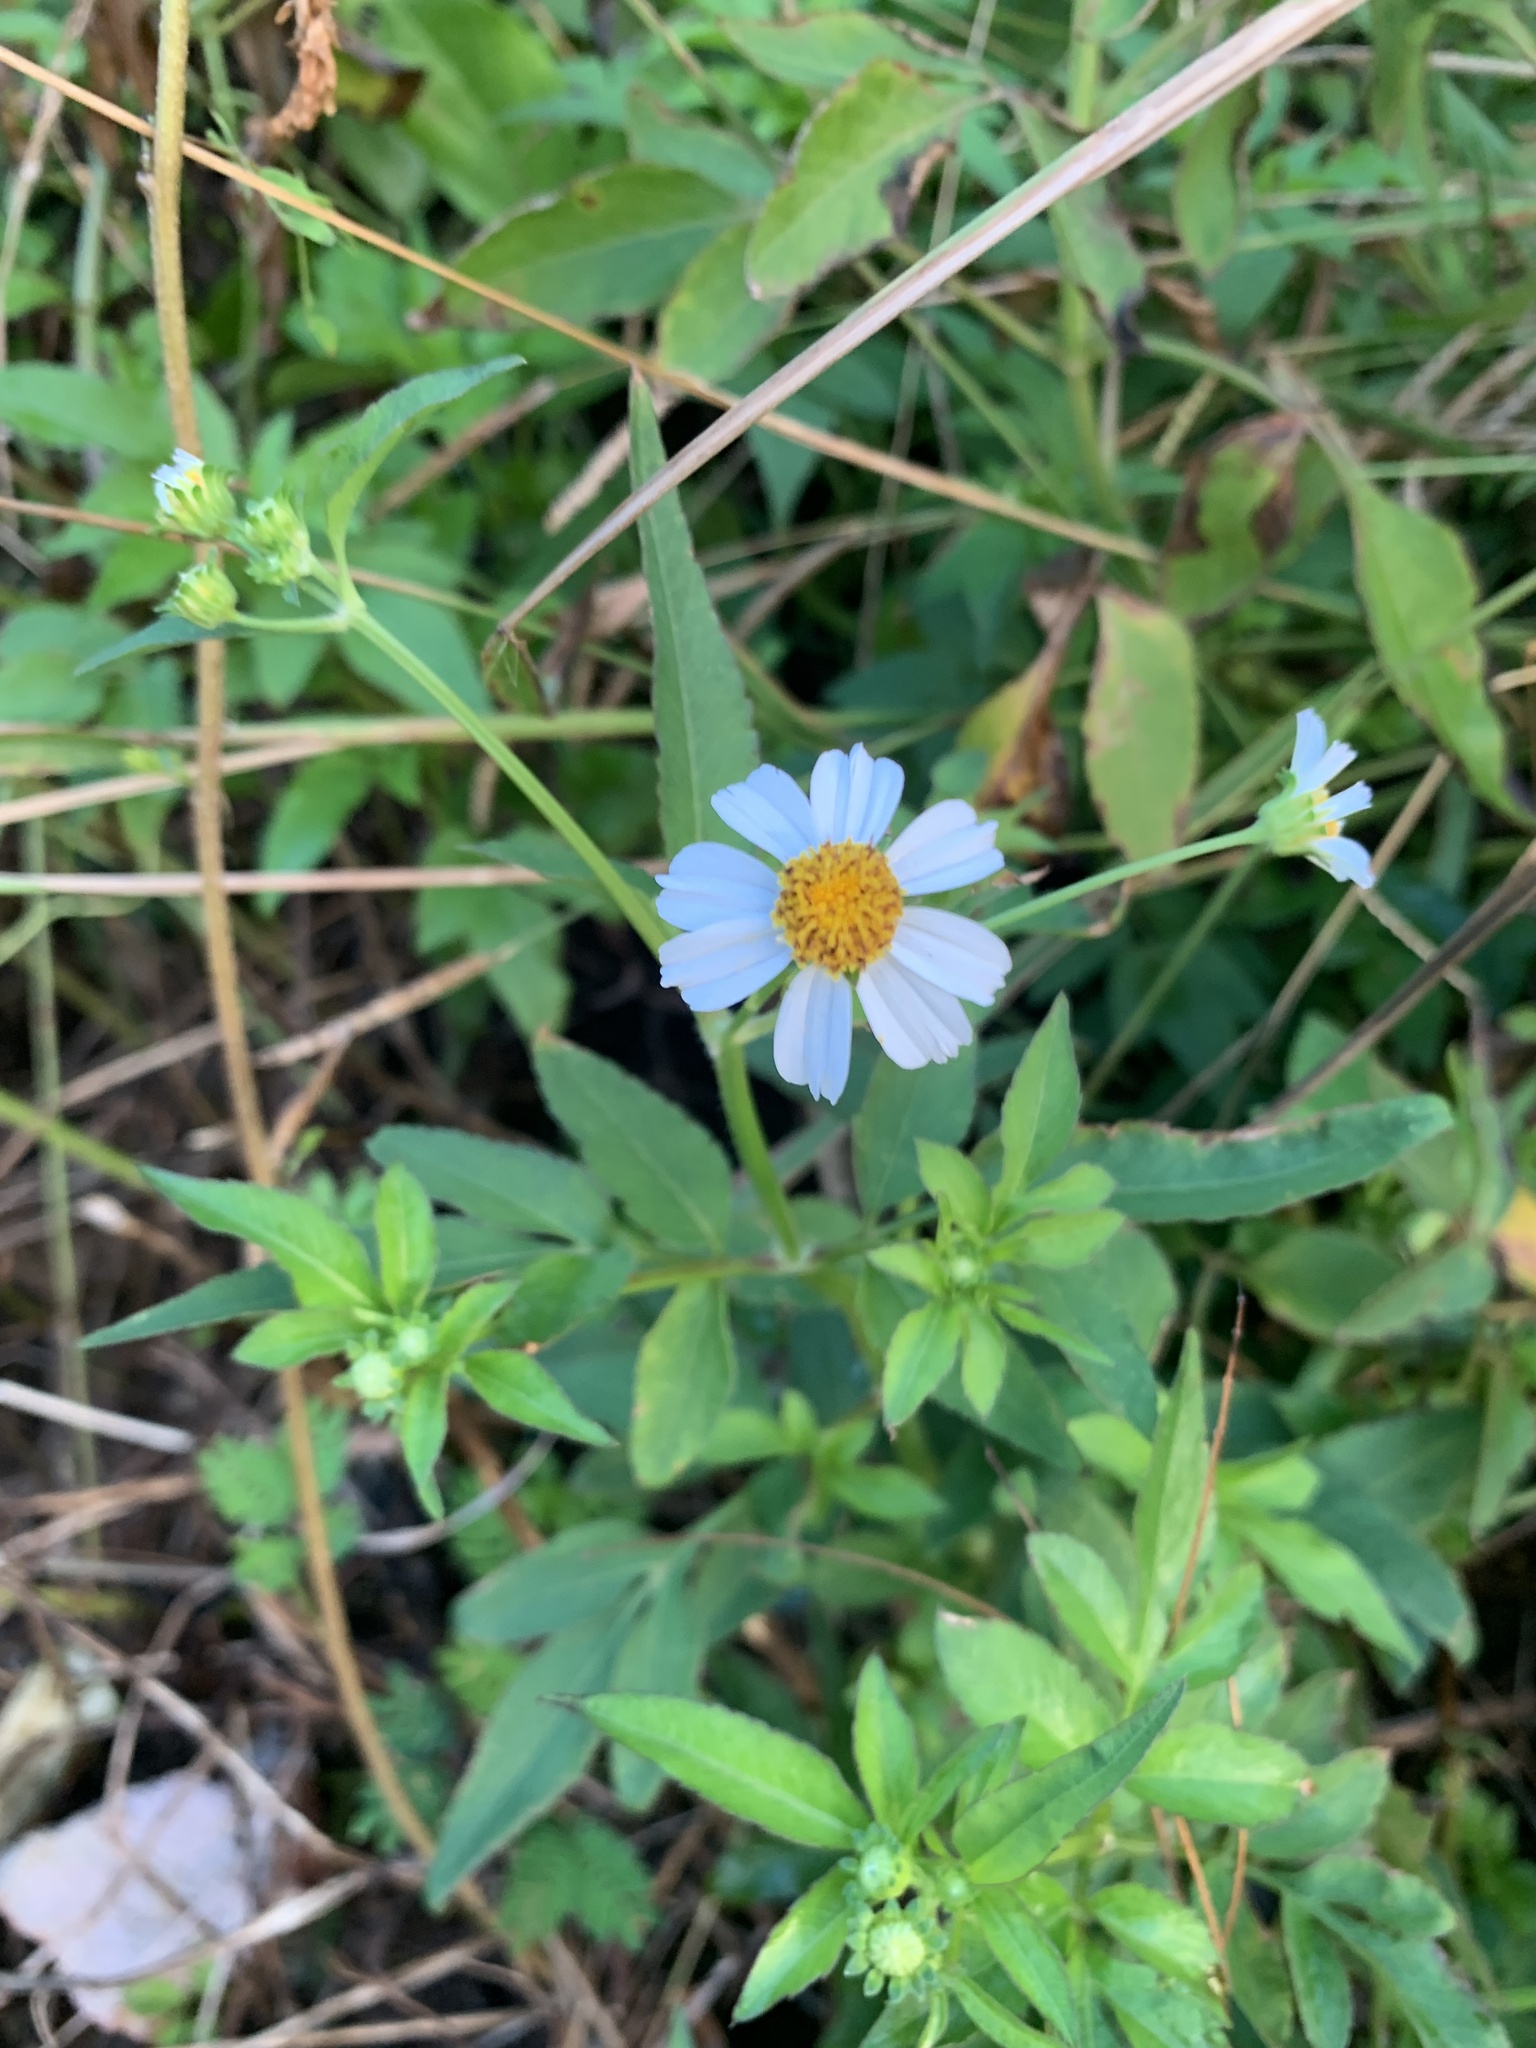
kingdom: Plantae
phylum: Tracheophyta
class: Magnoliopsida
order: Asterales
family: Asteraceae
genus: Bidens
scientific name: Bidens alba
